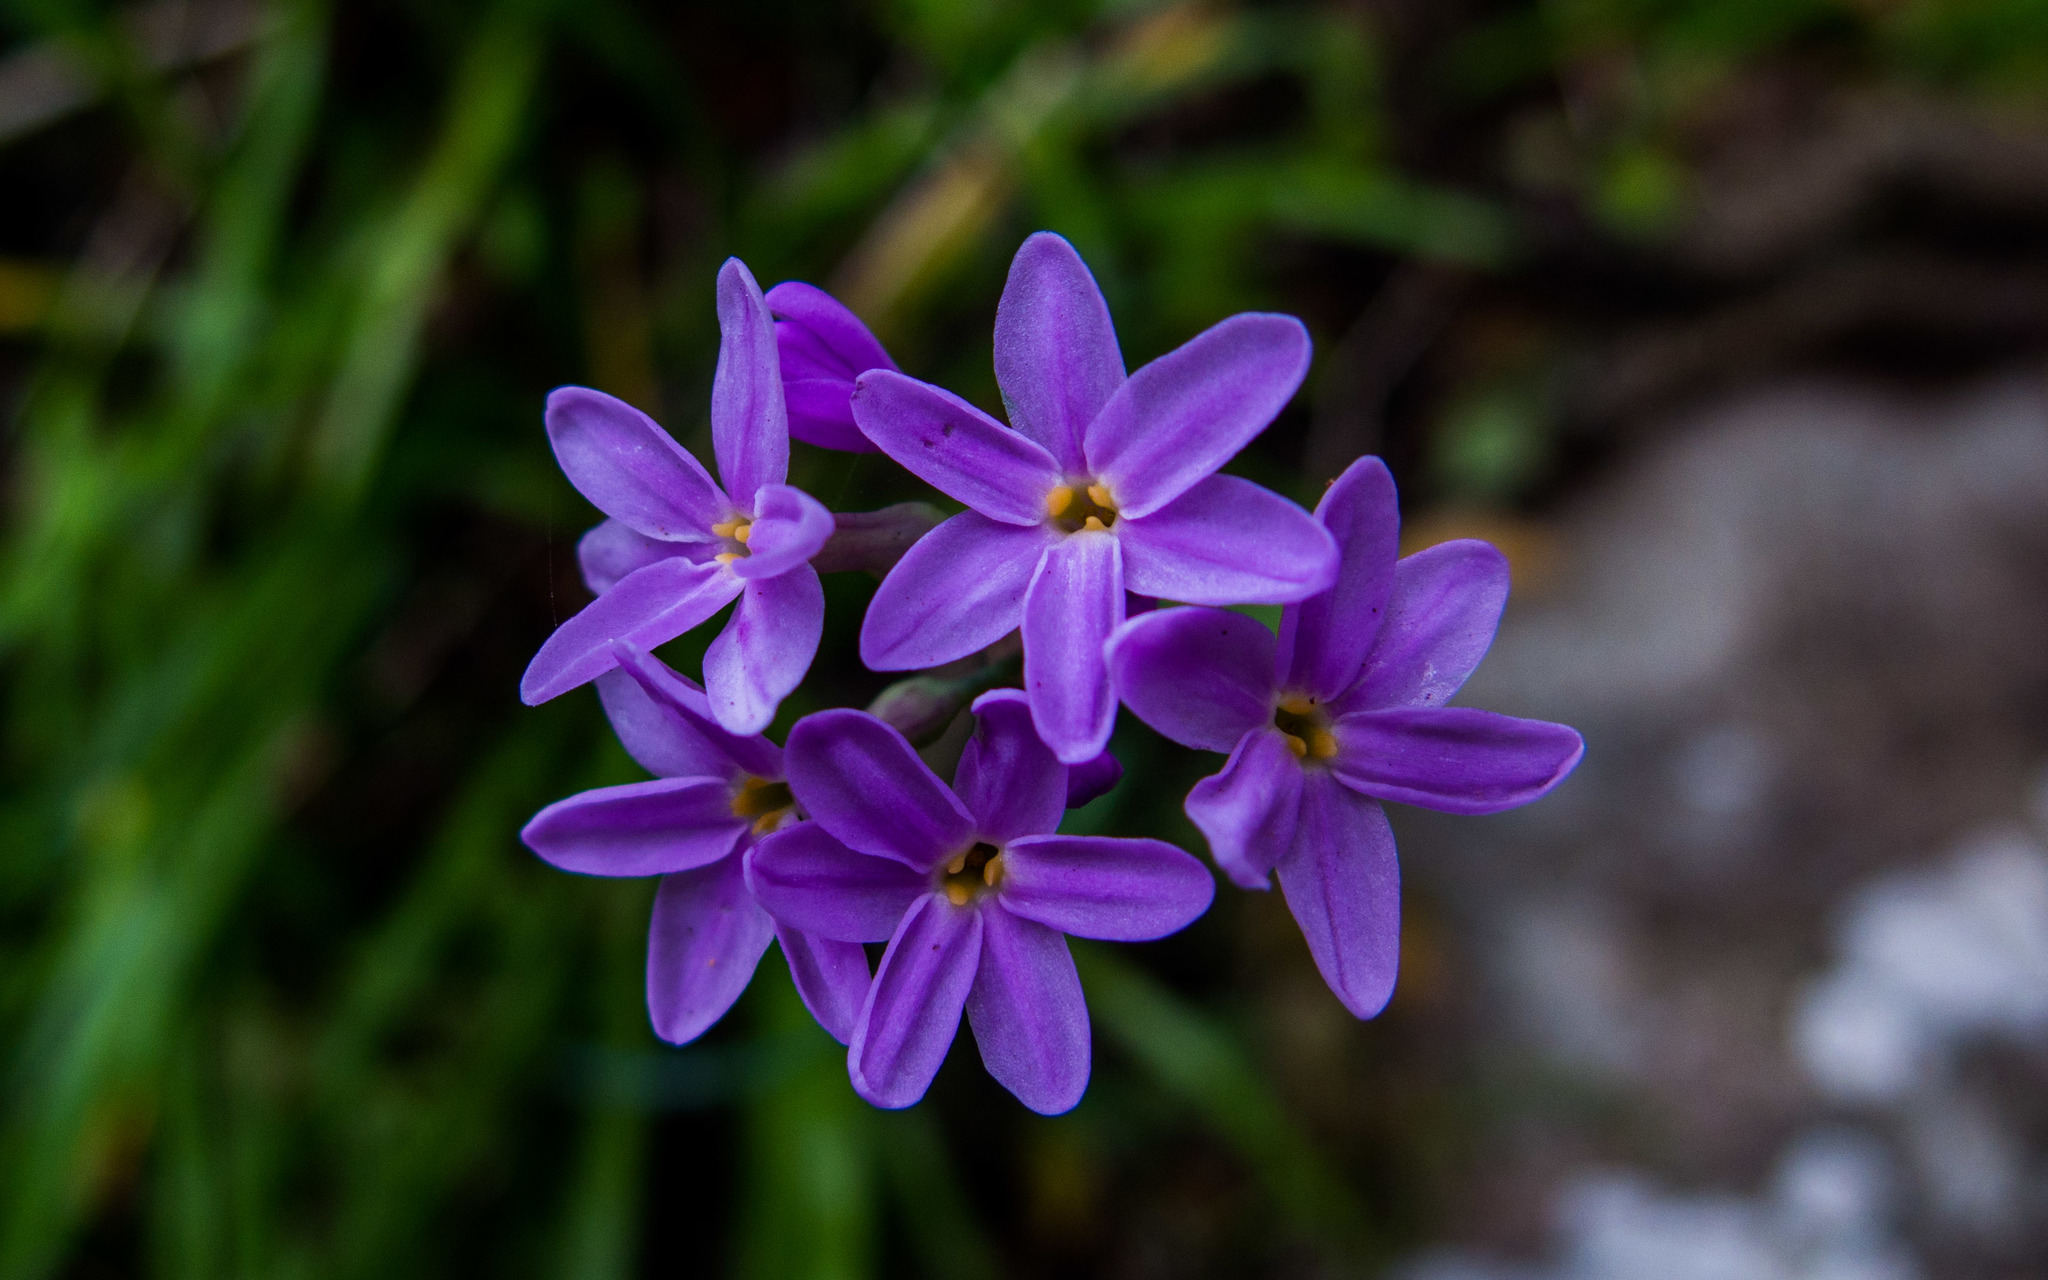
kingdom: Plantae
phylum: Tracheophyta
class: Liliopsida
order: Asparagales
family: Amaryllidaceae
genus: Tulbaghia
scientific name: Tulbaghia maritima
